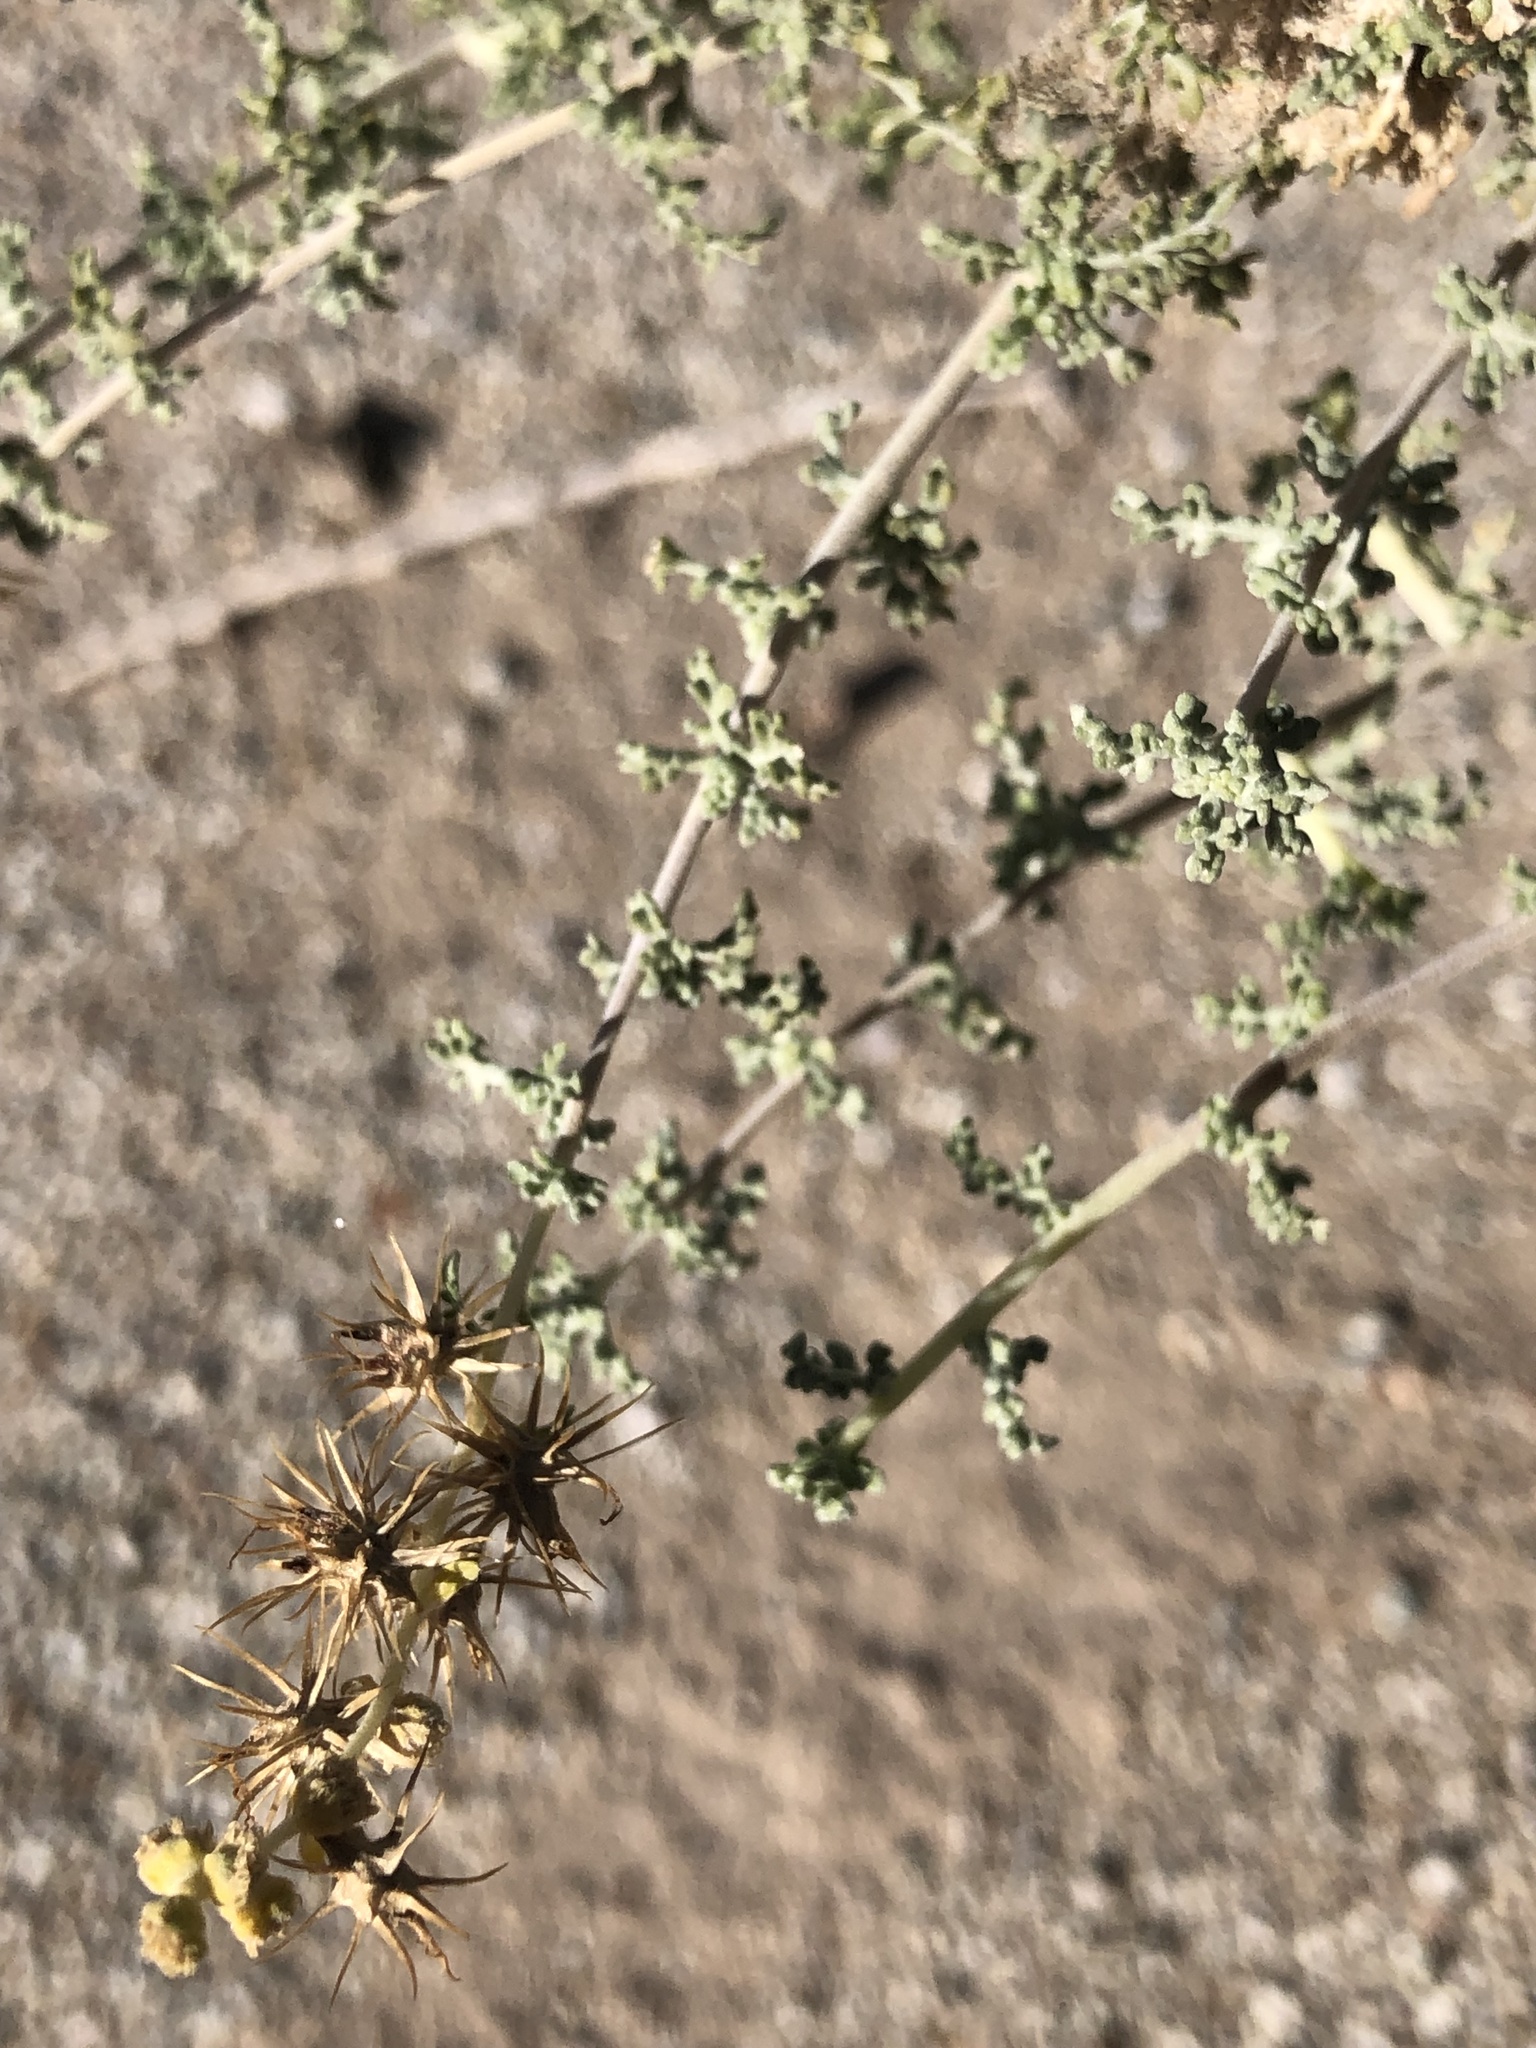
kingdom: Plantae
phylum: Tracheophyta
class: Magnoliopsida
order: Asterales
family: Asteraceae
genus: Ambrosia
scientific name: Ambrosia dumosa
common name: Bur-sage
